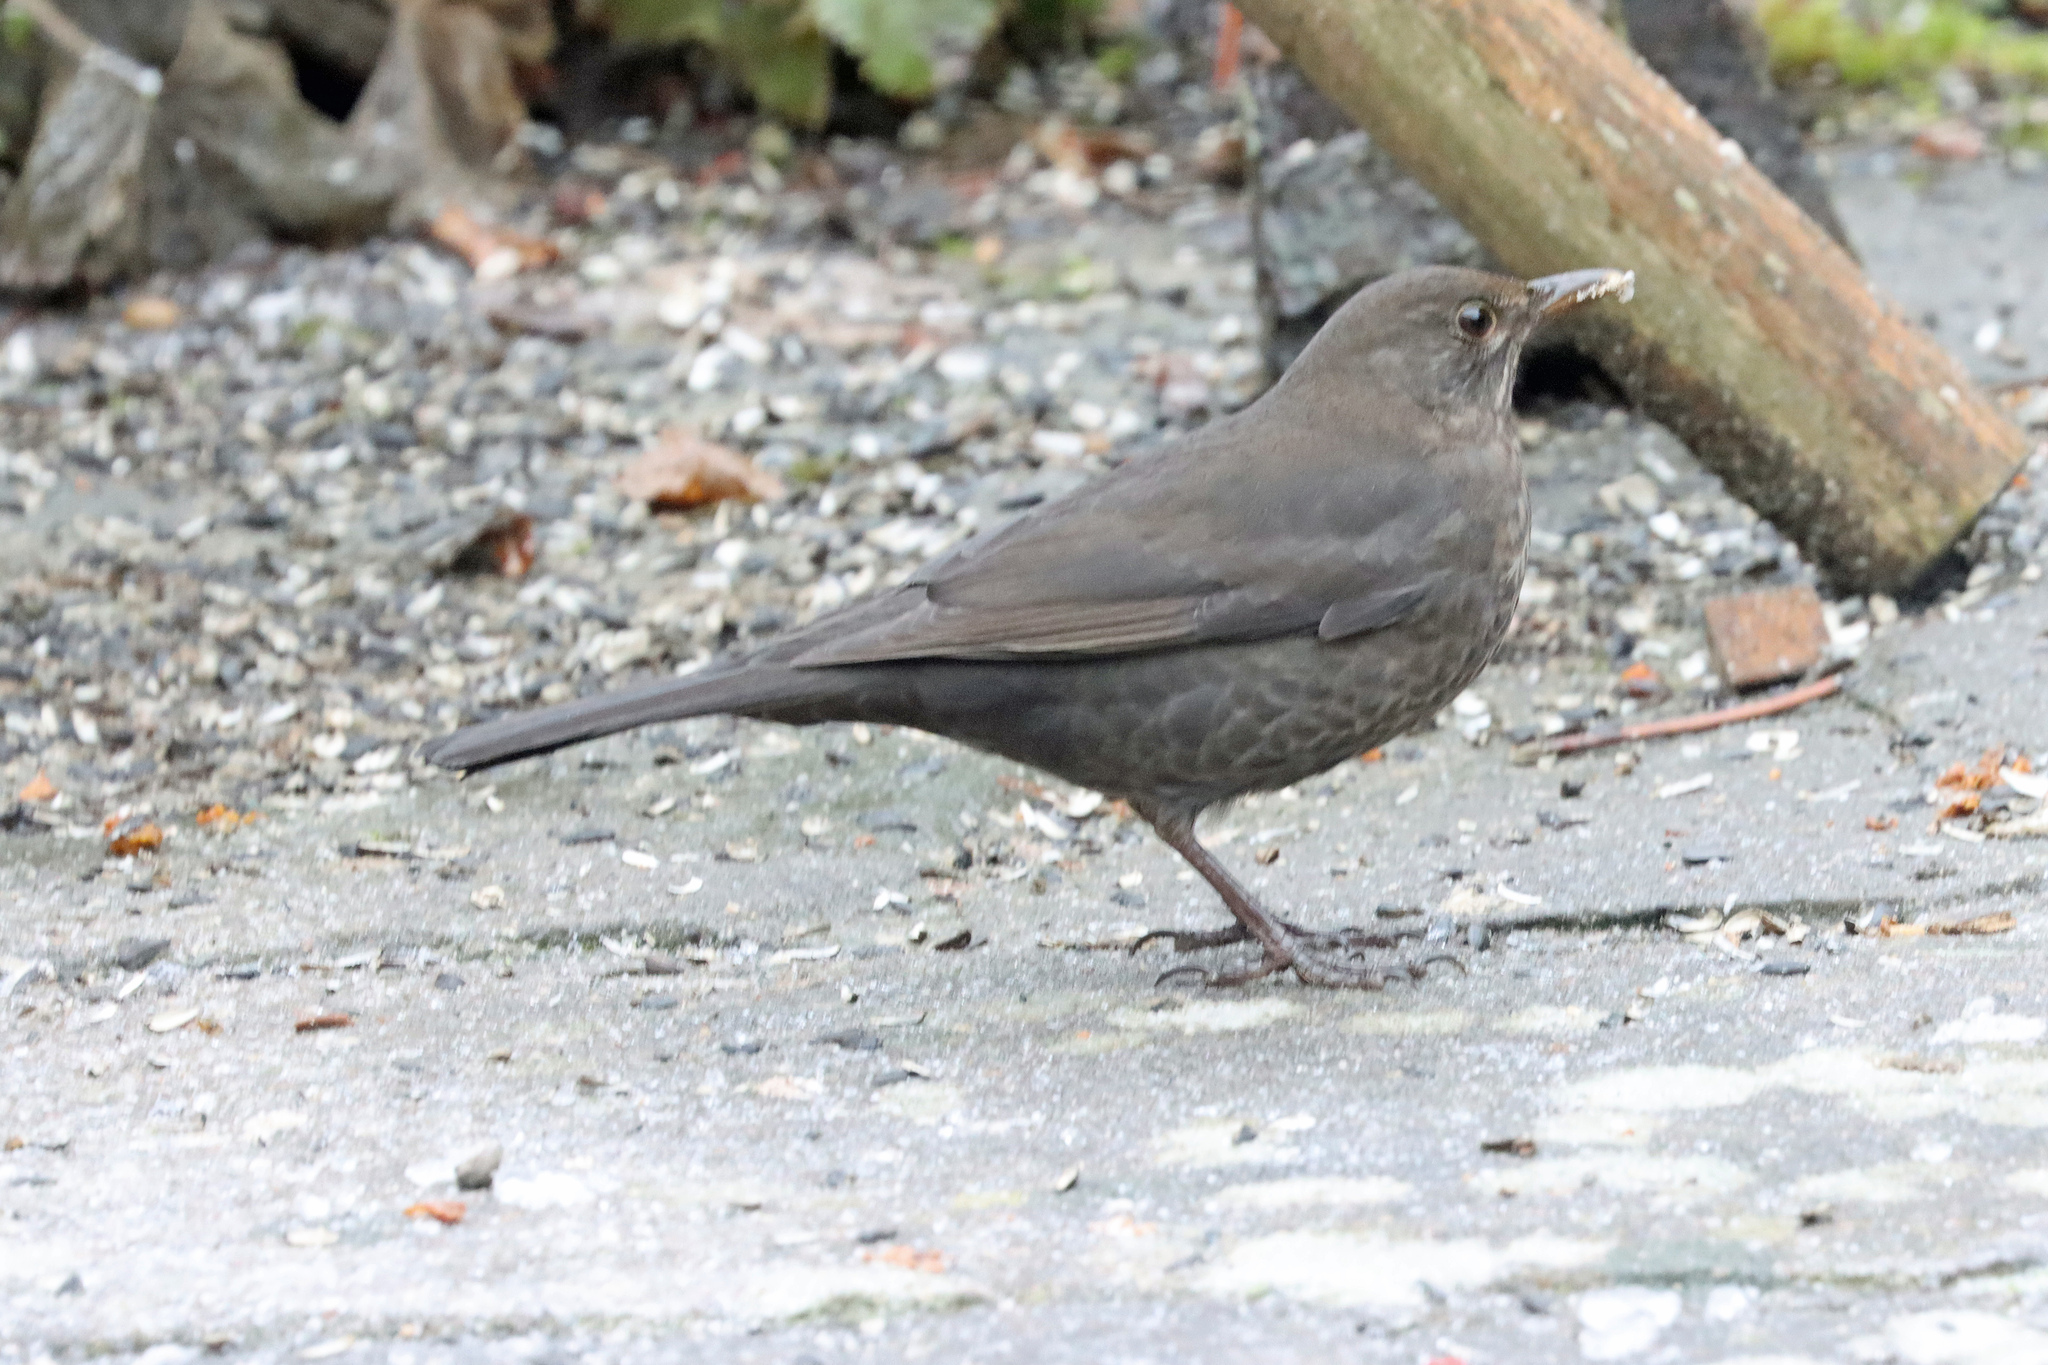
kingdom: Animalia
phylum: Chordata
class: Aves
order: Passeriformes
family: Turdidae
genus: Turdus
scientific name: Turdus merula
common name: Common blackbird
